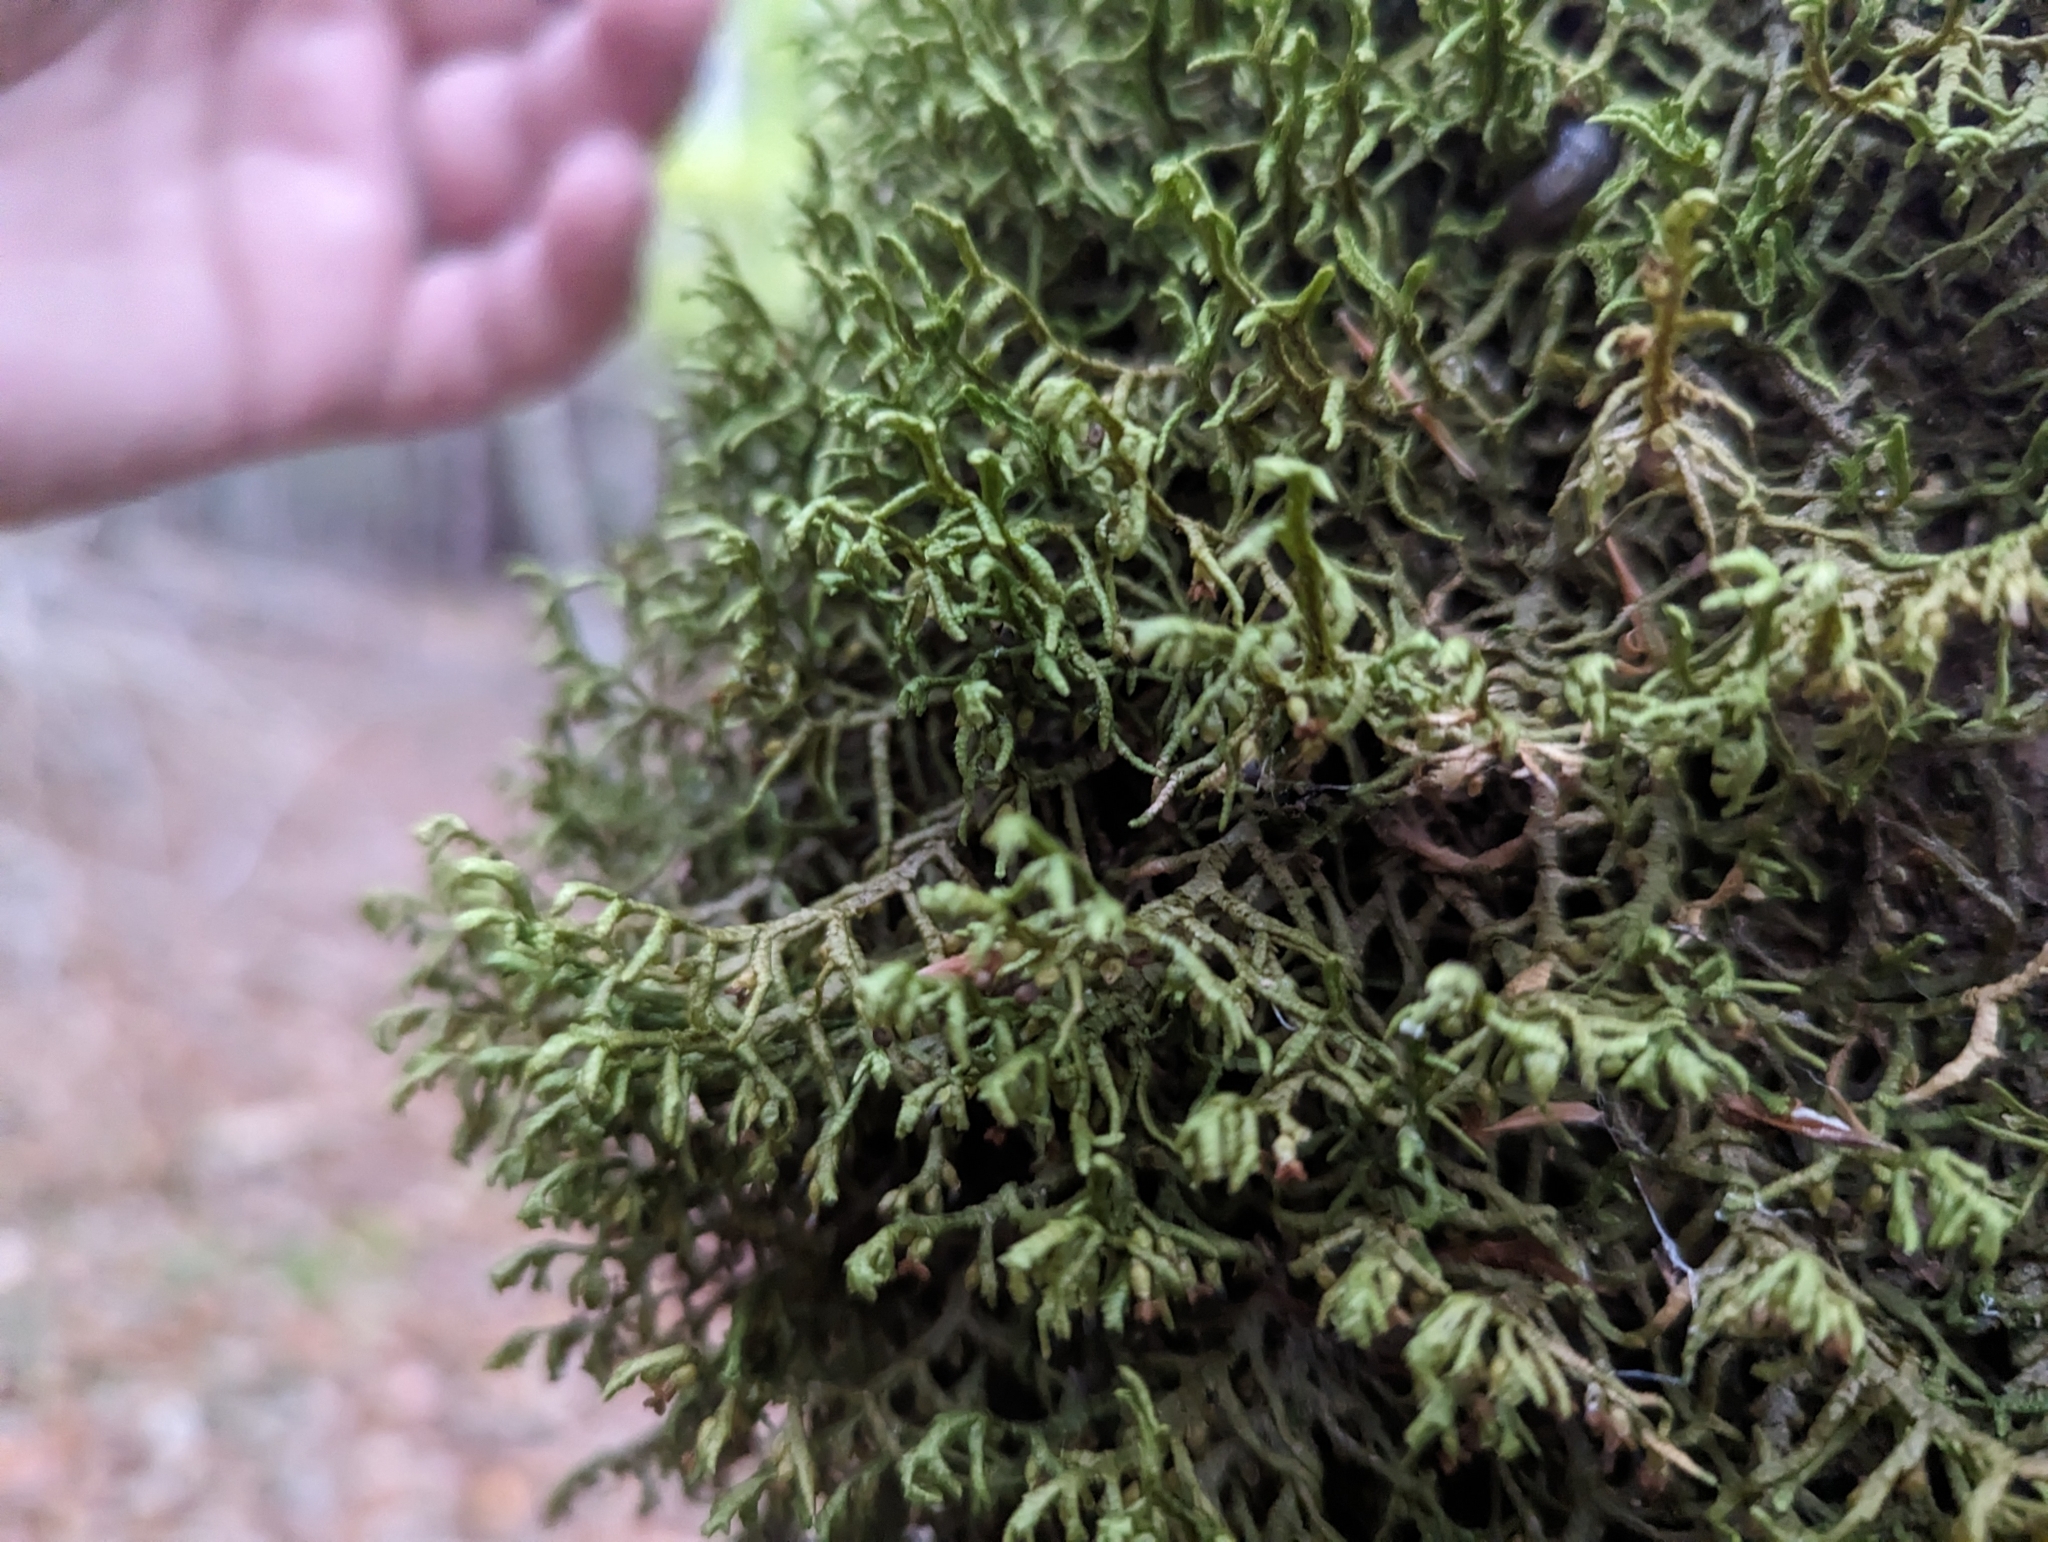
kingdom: Plantae
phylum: Marchantiophyta
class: Jungermanniopsida
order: Porellales
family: Porellaceae
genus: Porella
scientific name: Porella platyphylla
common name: Wall scalewort
